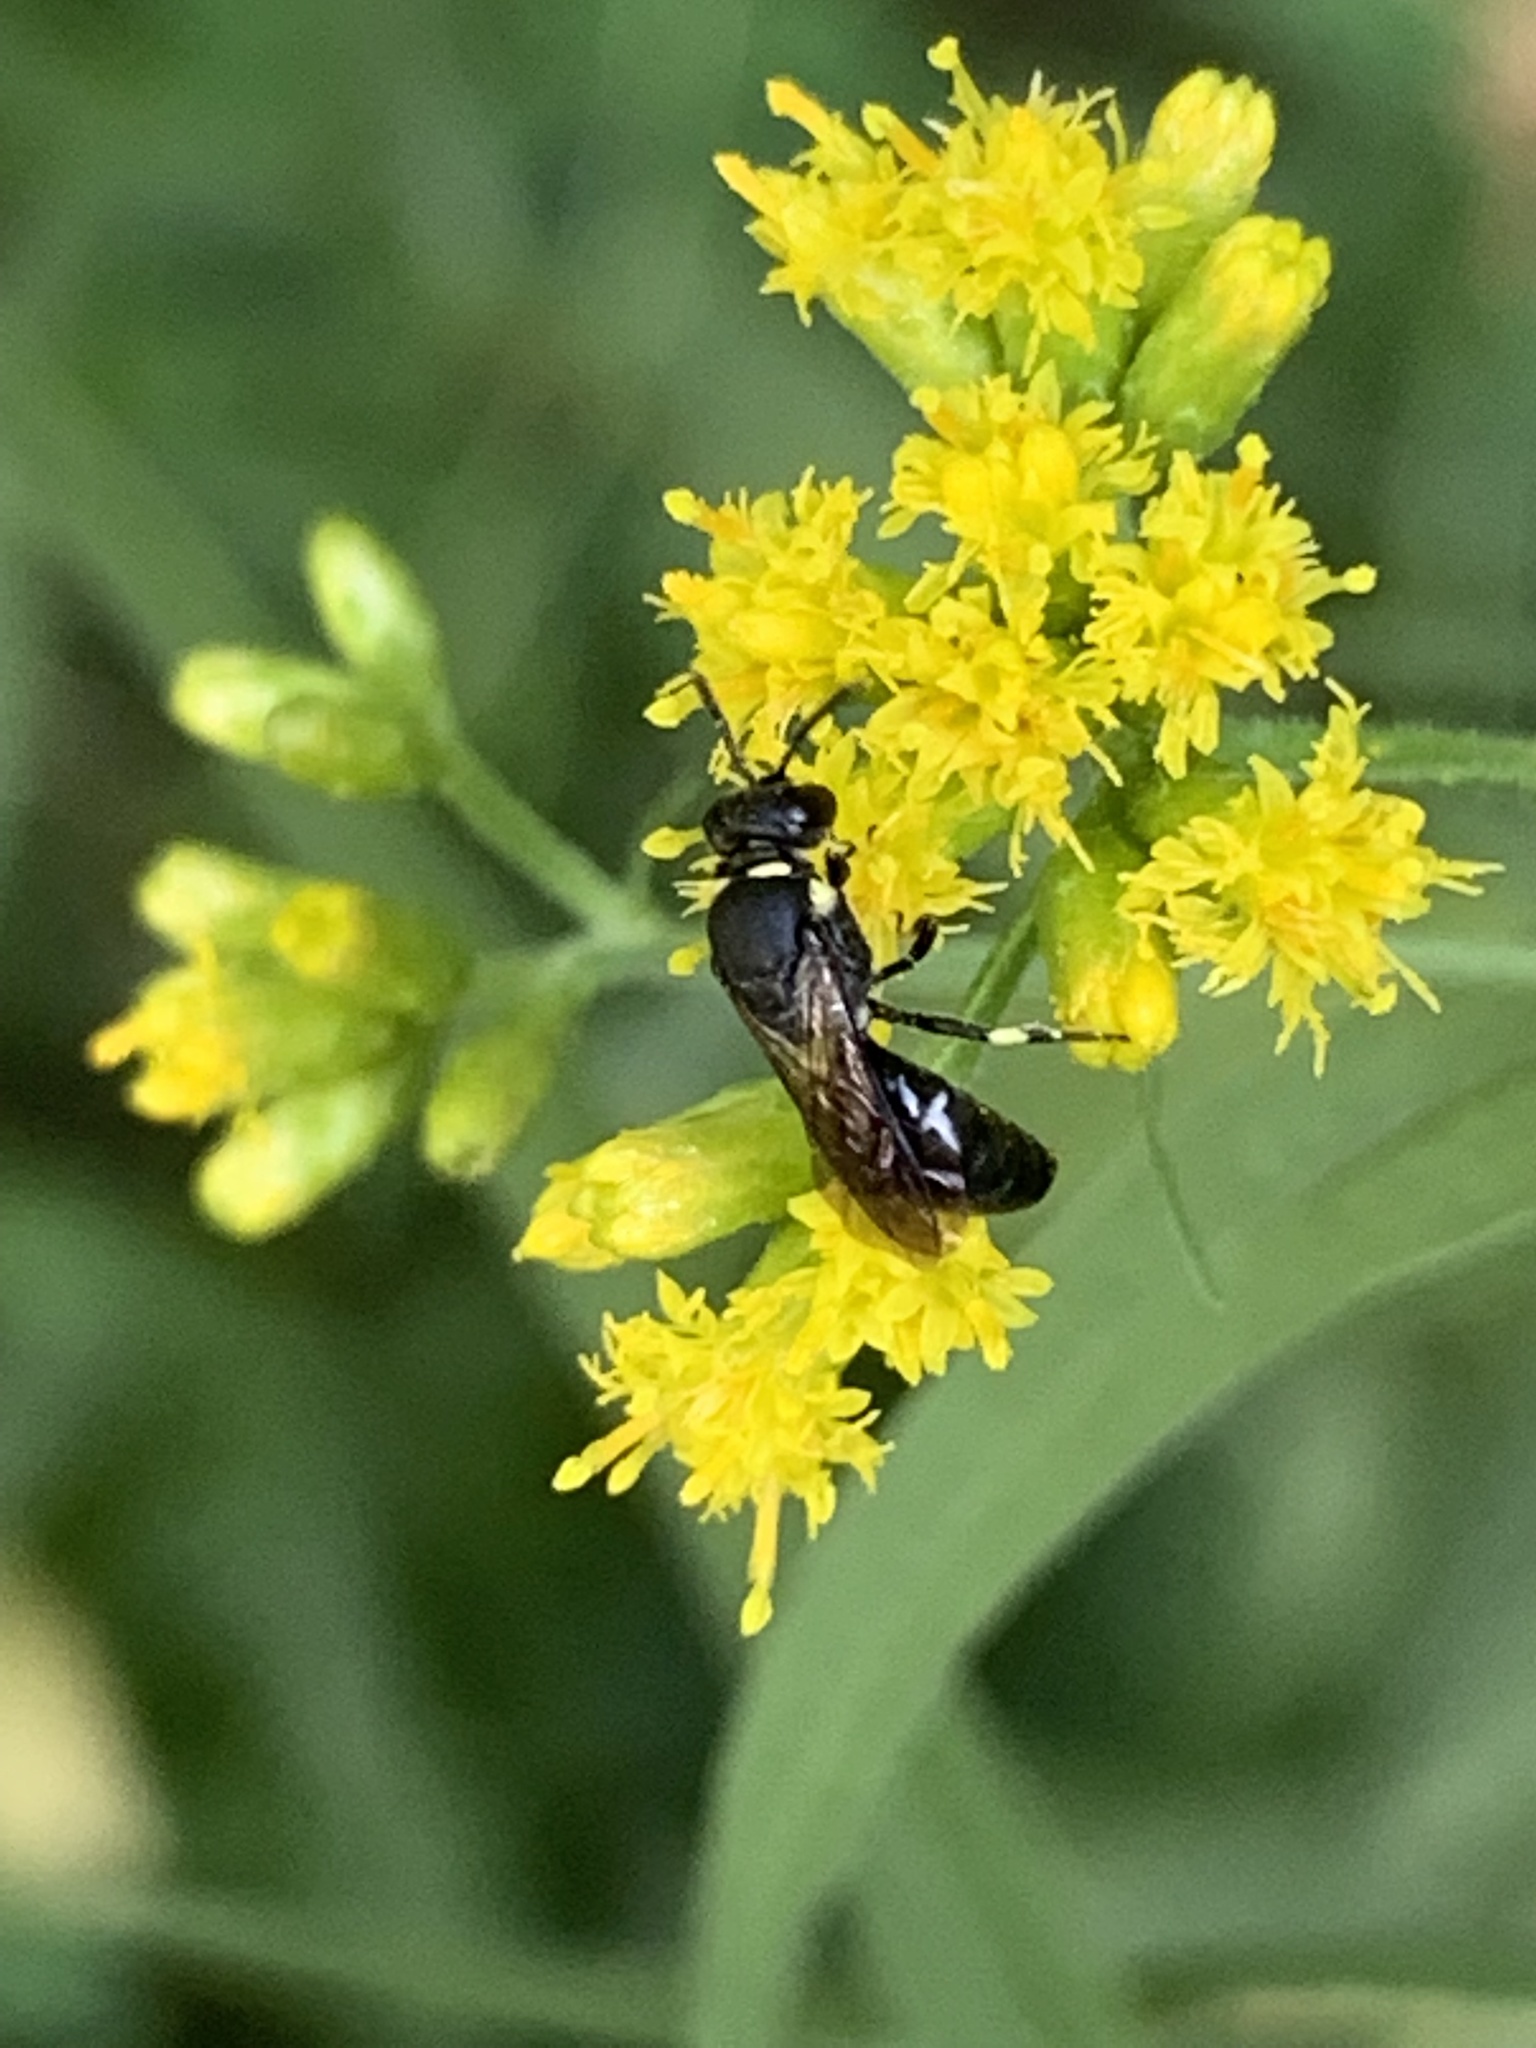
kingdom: Animalia
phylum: Arthropoda
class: Insecta
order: Hymenoptera
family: Colletidae
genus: Hylaeus
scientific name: Hylaeus modestus
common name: Yellow-faced bee
